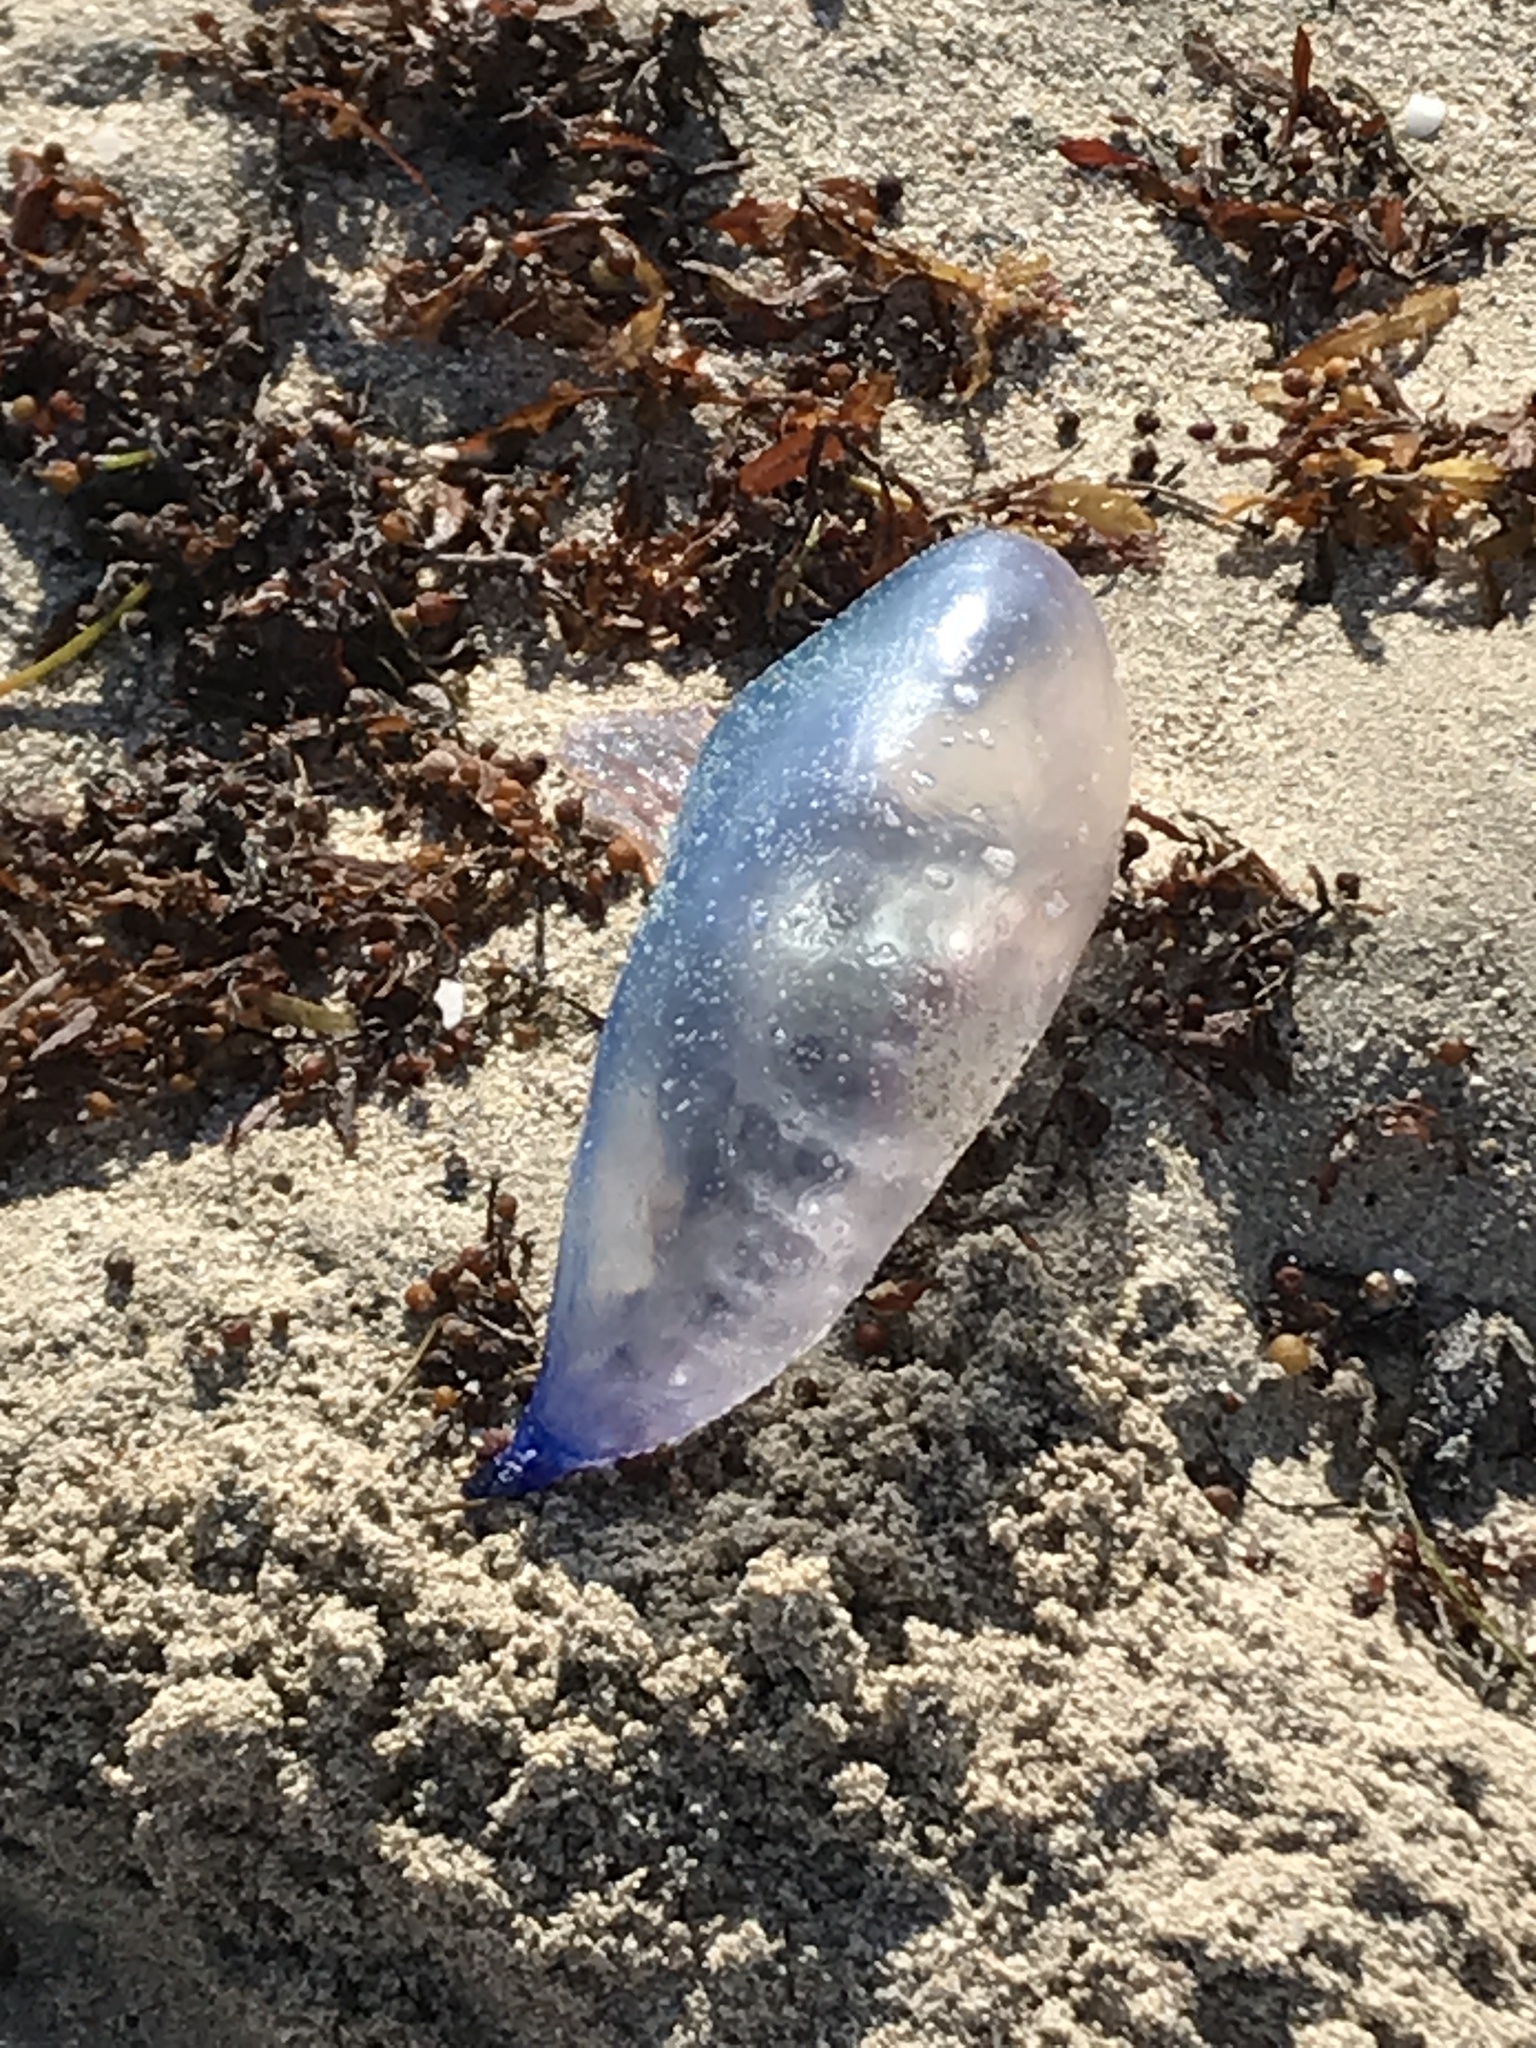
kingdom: Animalia
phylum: Cnidaria
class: Hydrozoa
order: Siphonophorae
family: Physaliidae
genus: Physalia
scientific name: Physalia physalis
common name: Portuguese man-of-war
